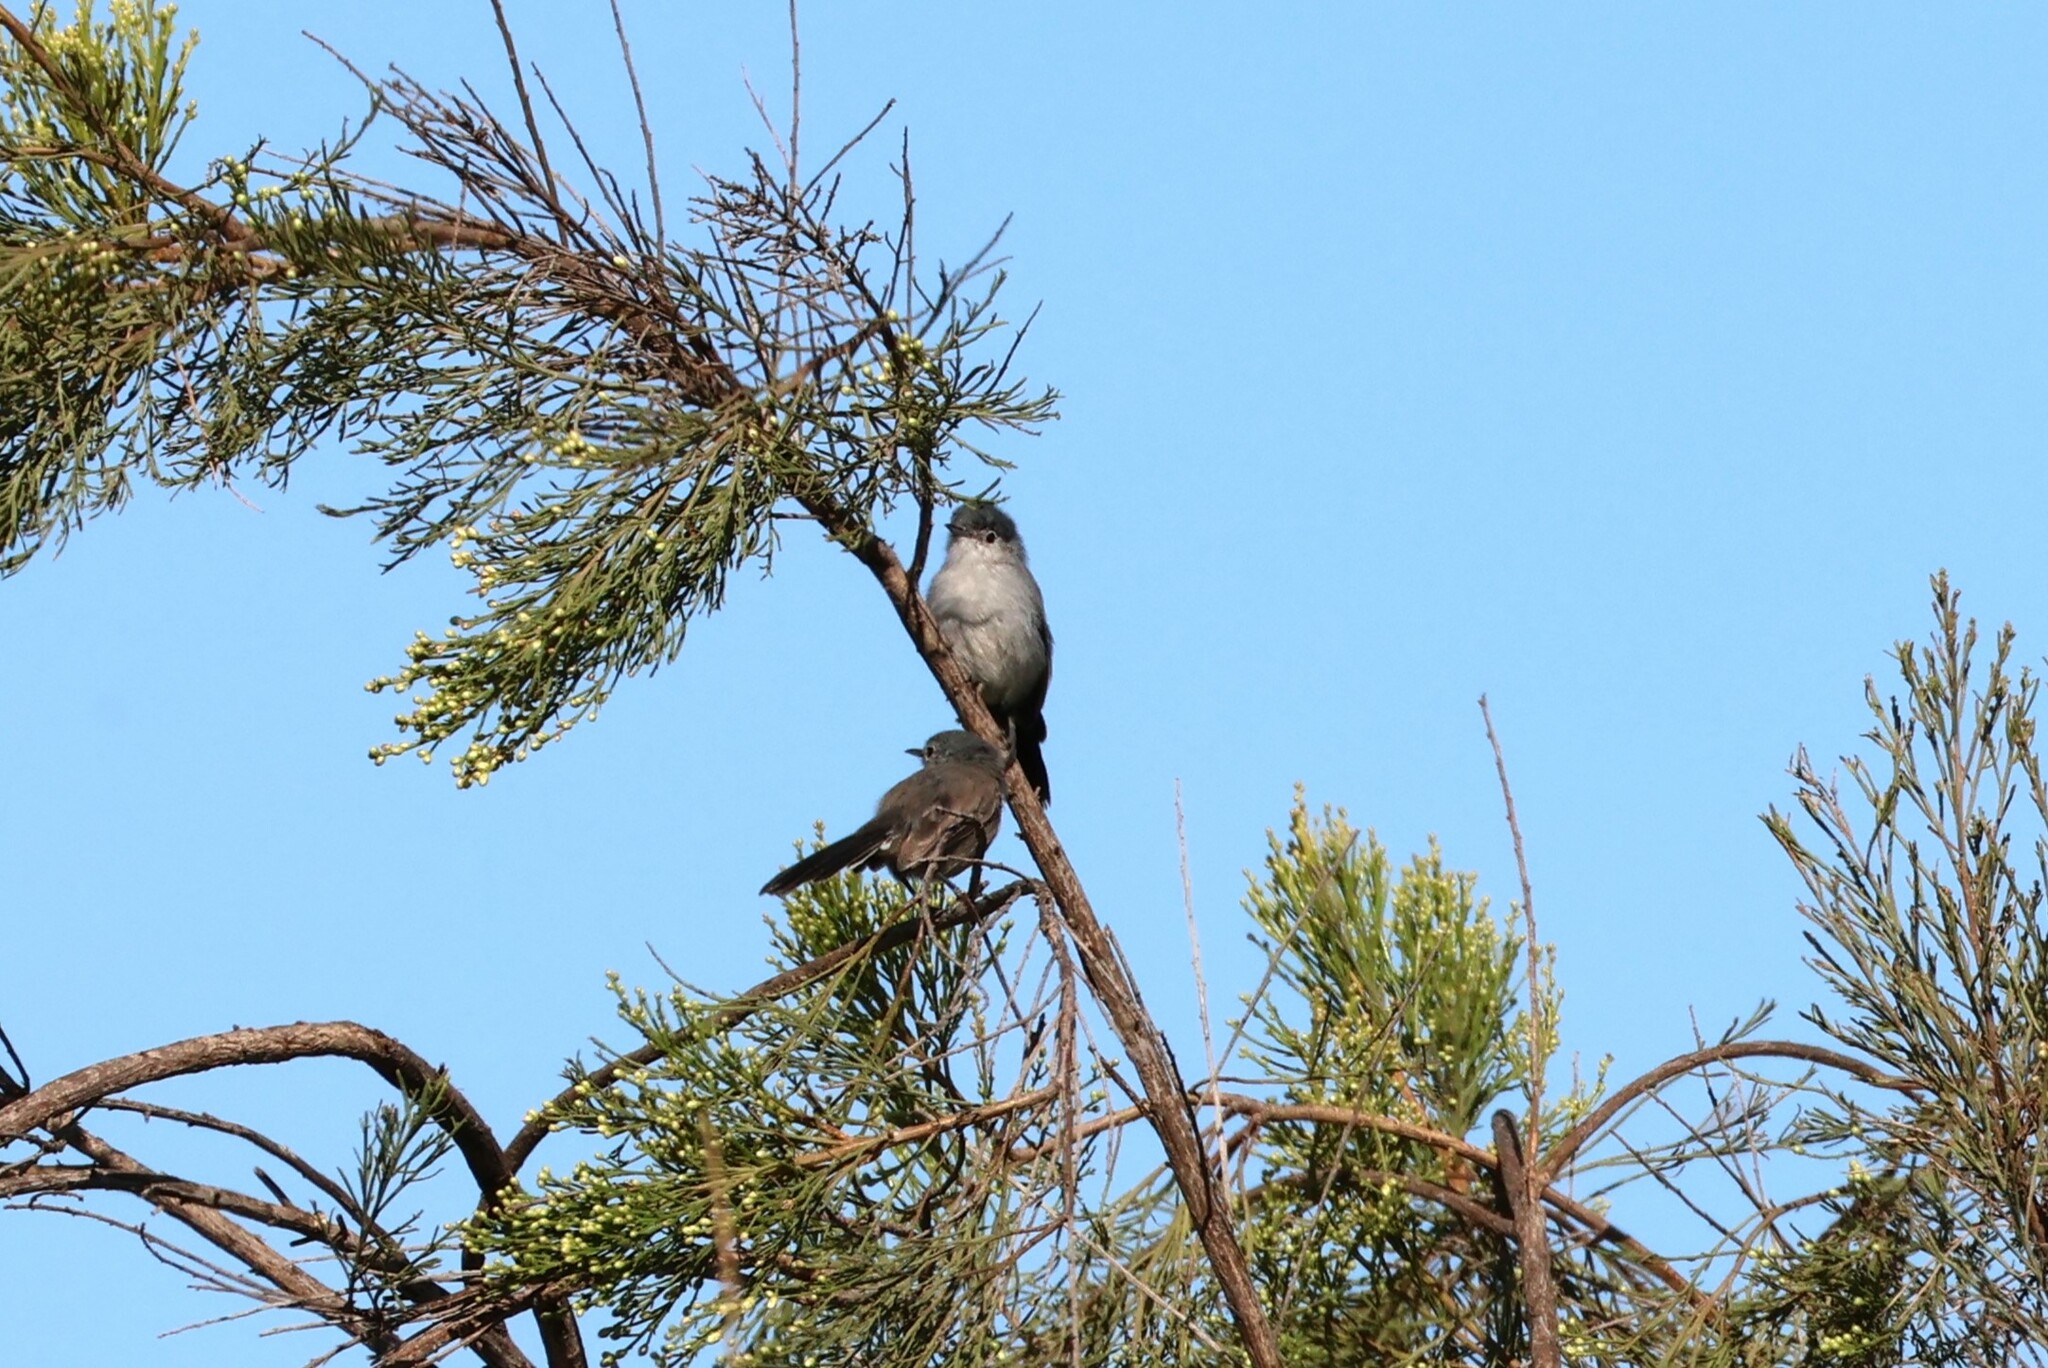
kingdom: Animalia
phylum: Chordata
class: Aves
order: Passeriformes
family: Polioptilidae
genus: Polioptila
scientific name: Polioptila californica
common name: California gnatcatcher
